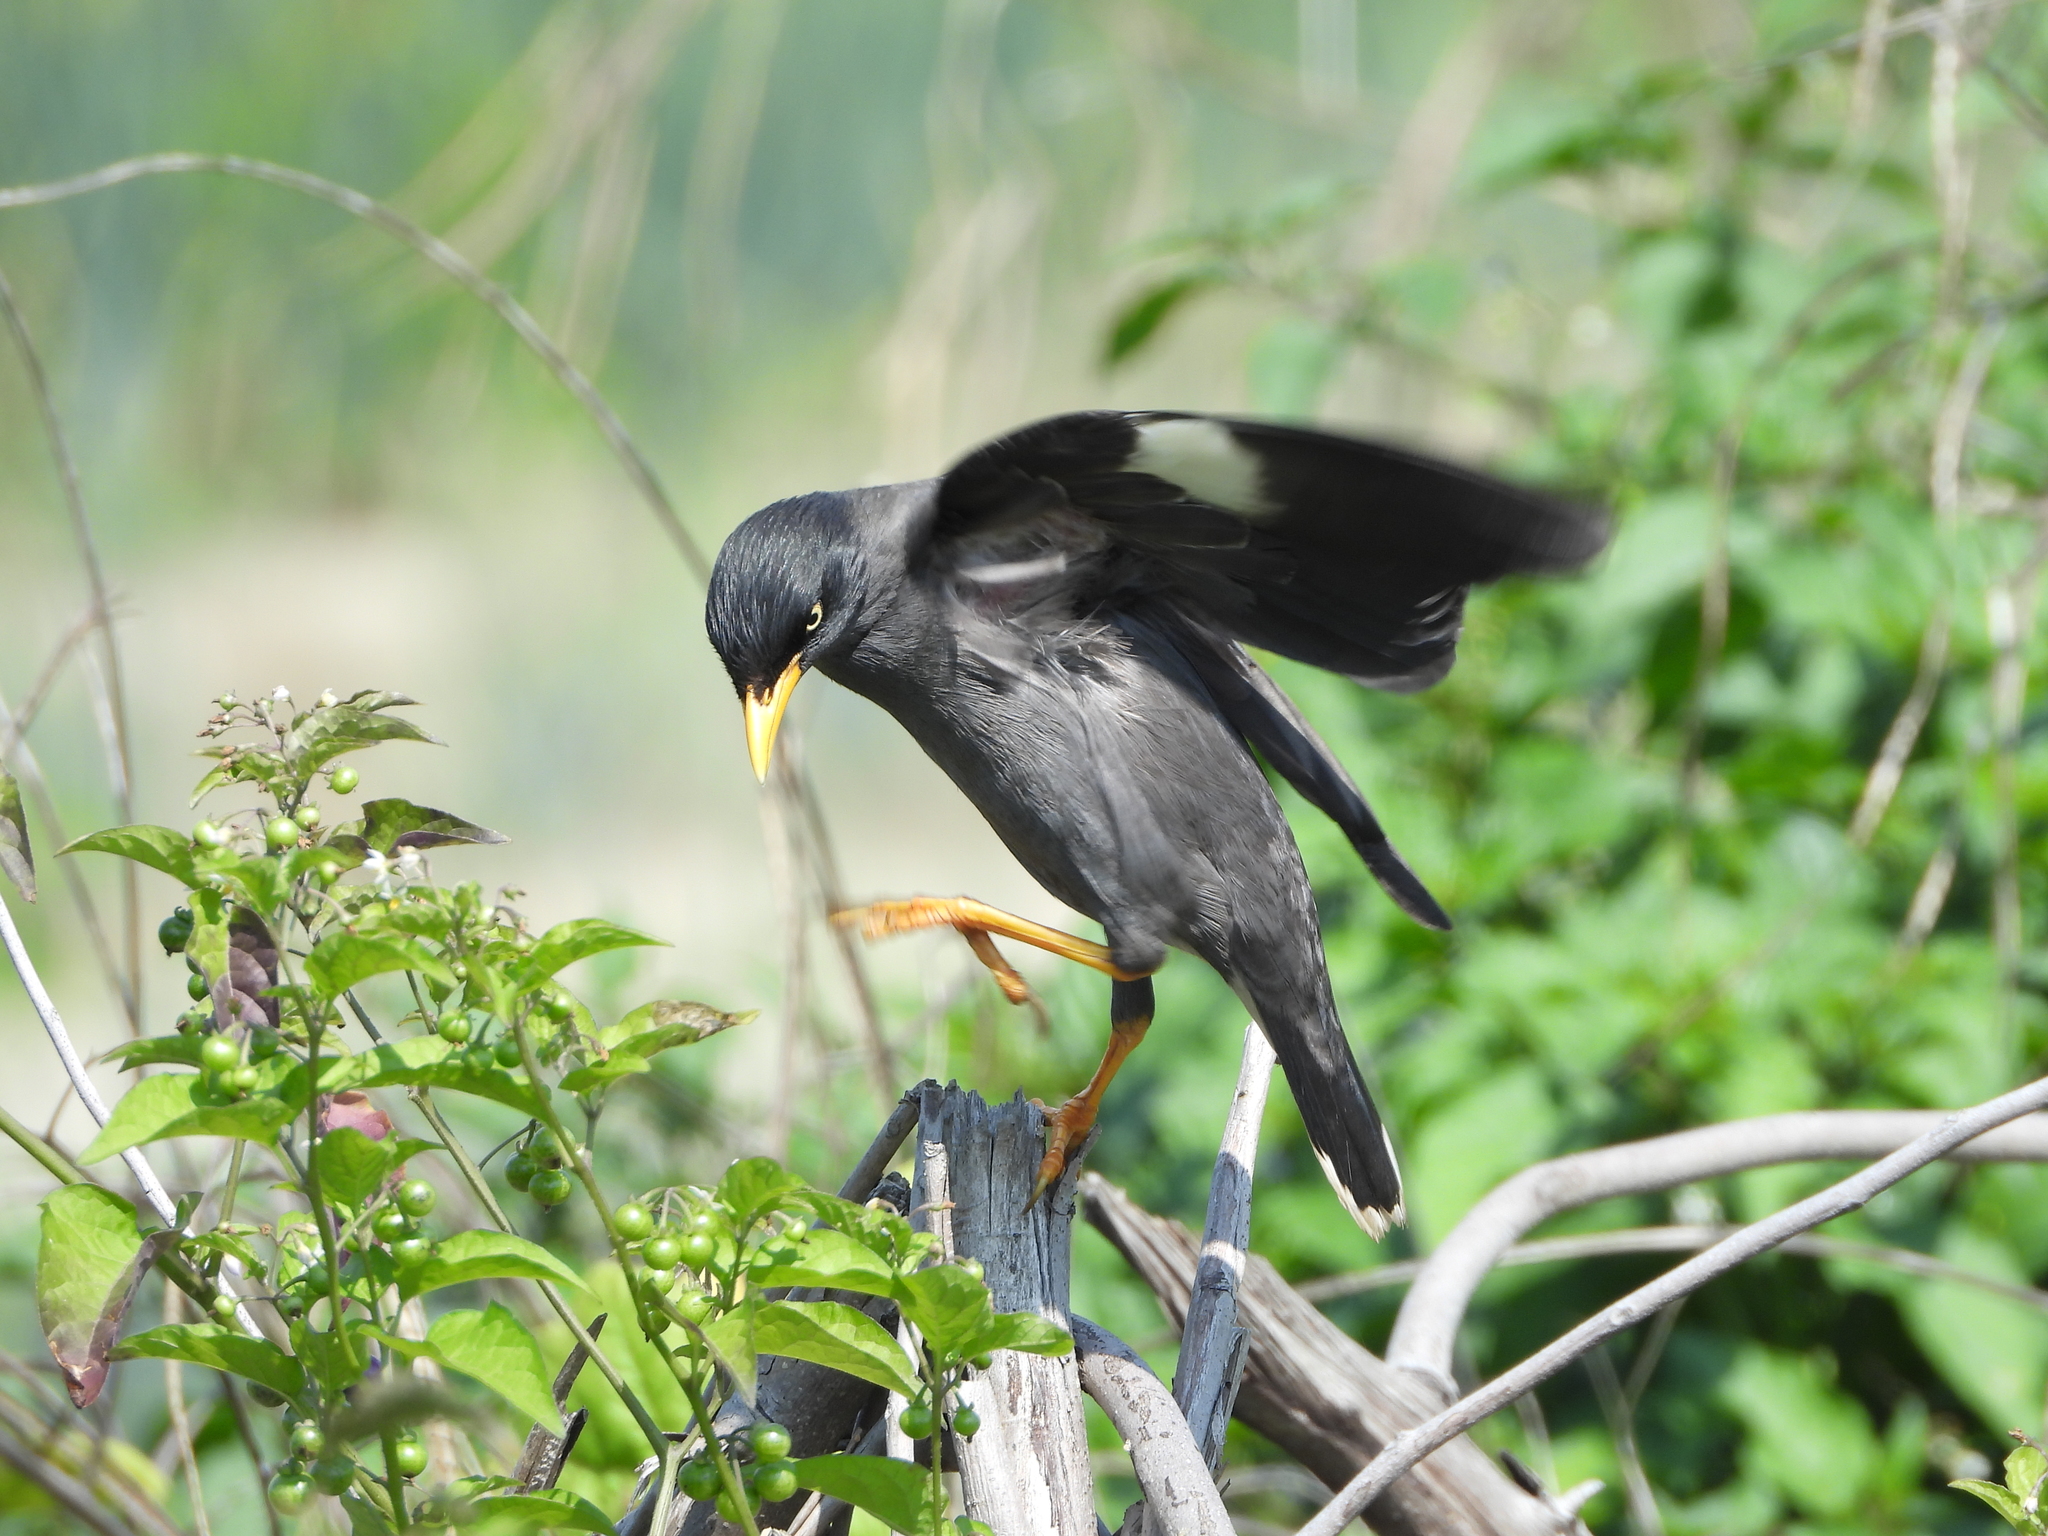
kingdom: Animalia
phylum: Chordata
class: Aves
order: Passeriformes
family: Sturnidae
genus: Acridotheres
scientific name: Acridotheres javanicus
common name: Javan myna
